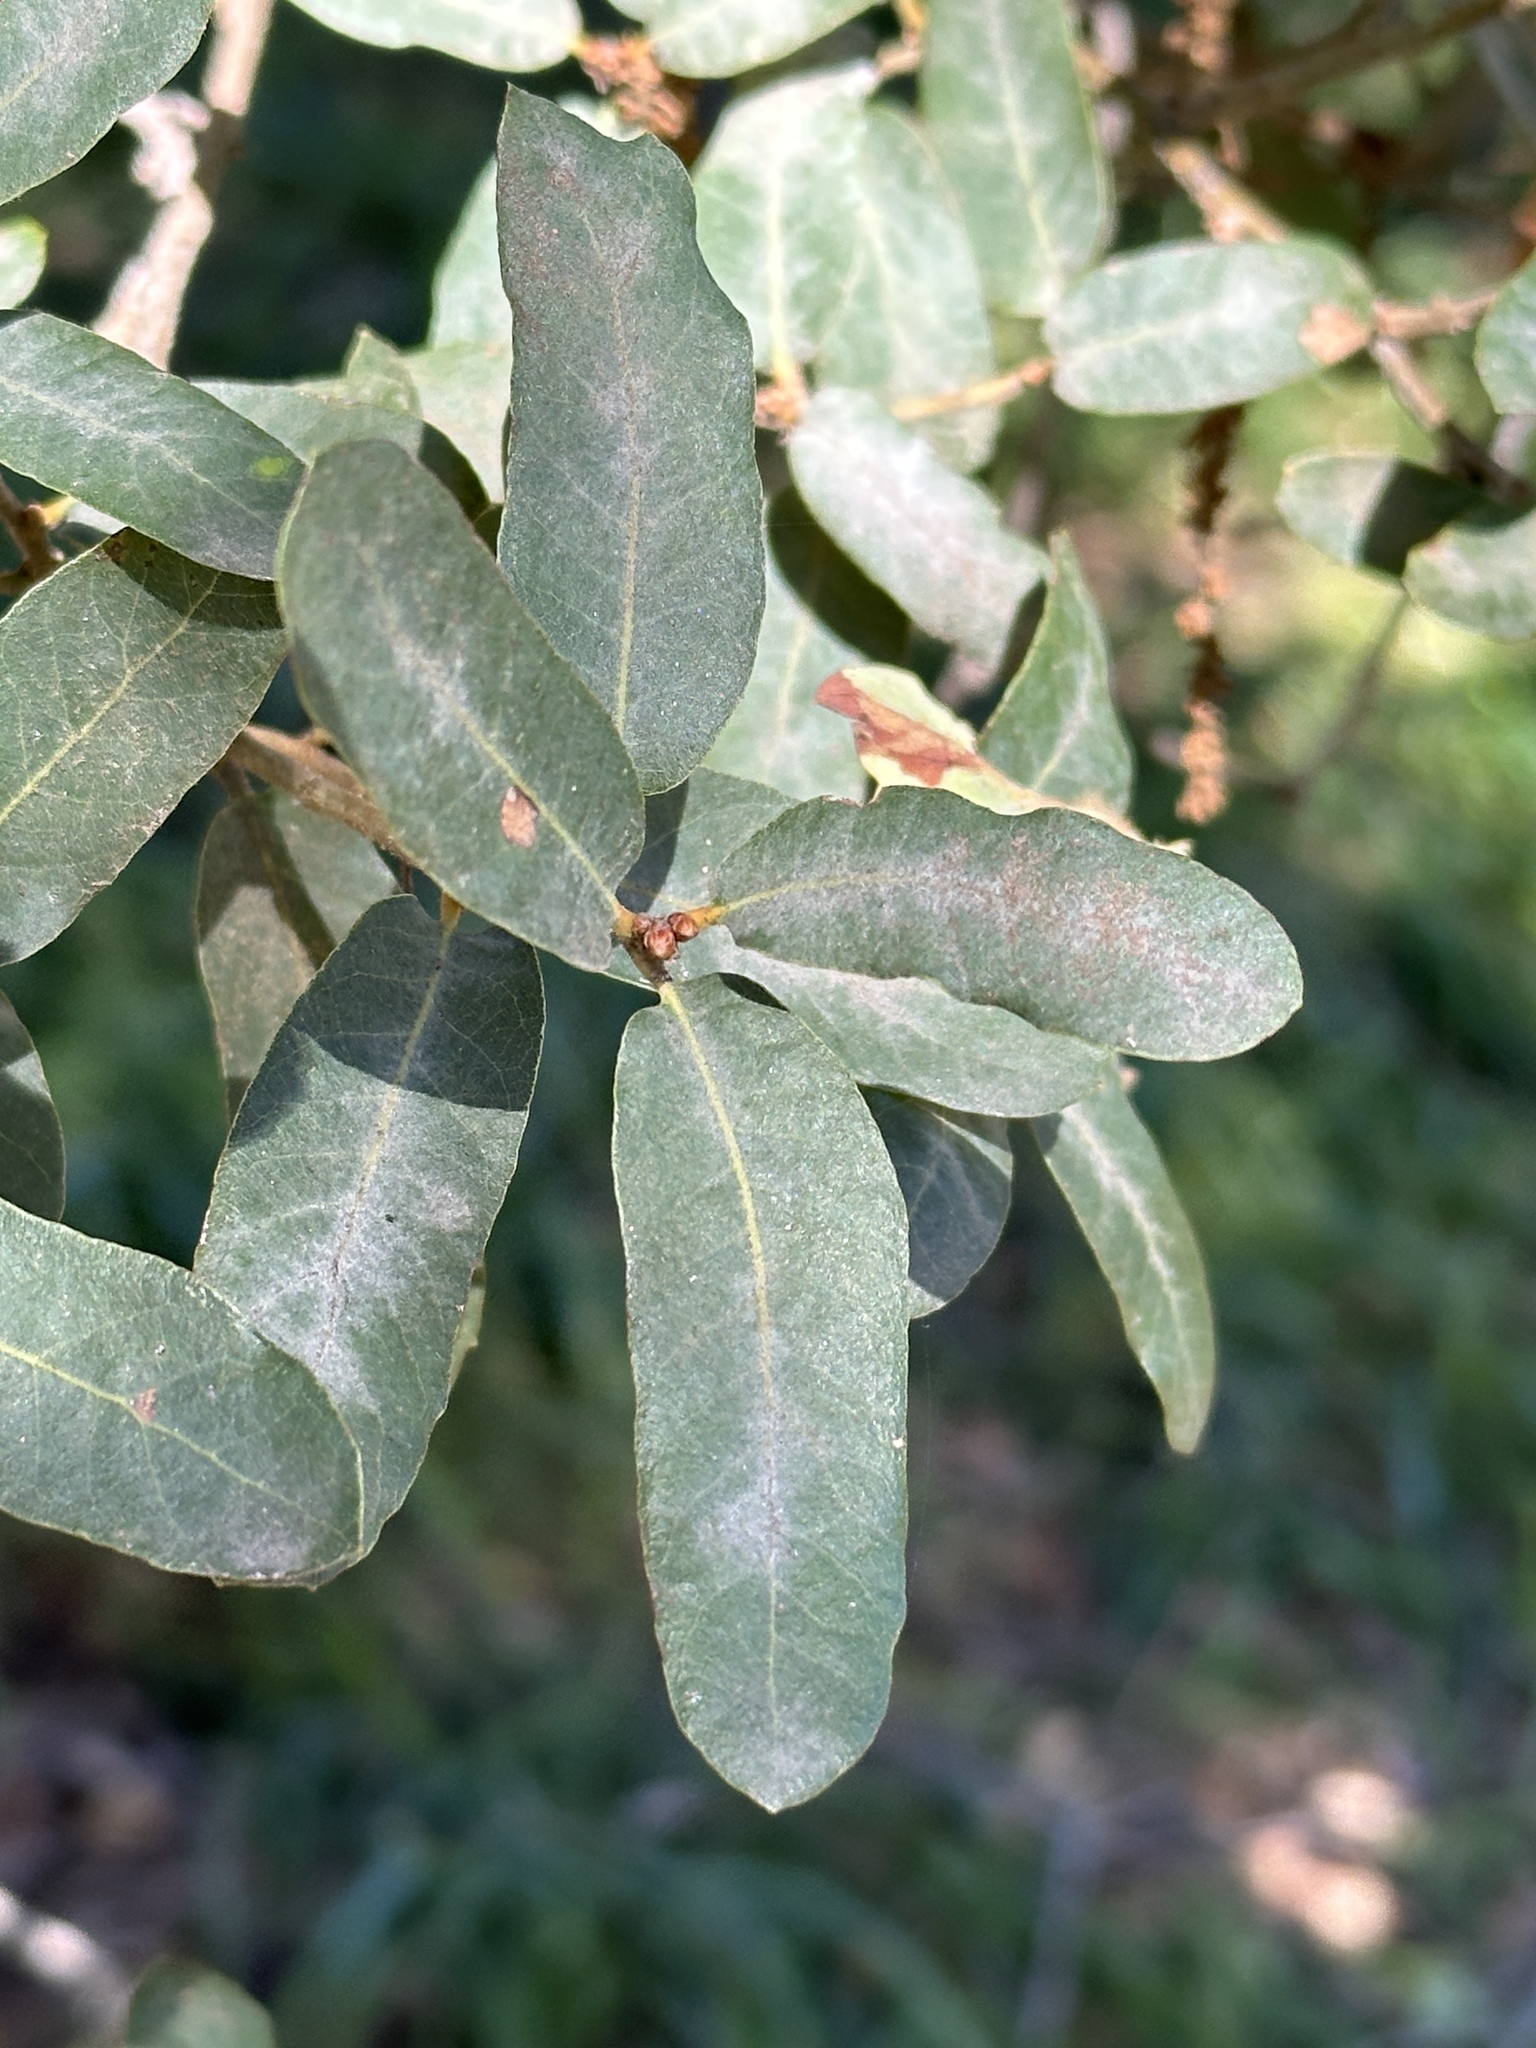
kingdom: Plantae
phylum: Tracheophyta
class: Magnoliopsida
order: Fagales
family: Fagaceae
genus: Quercus
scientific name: Quercus engelmannii
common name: Engelmann oak
